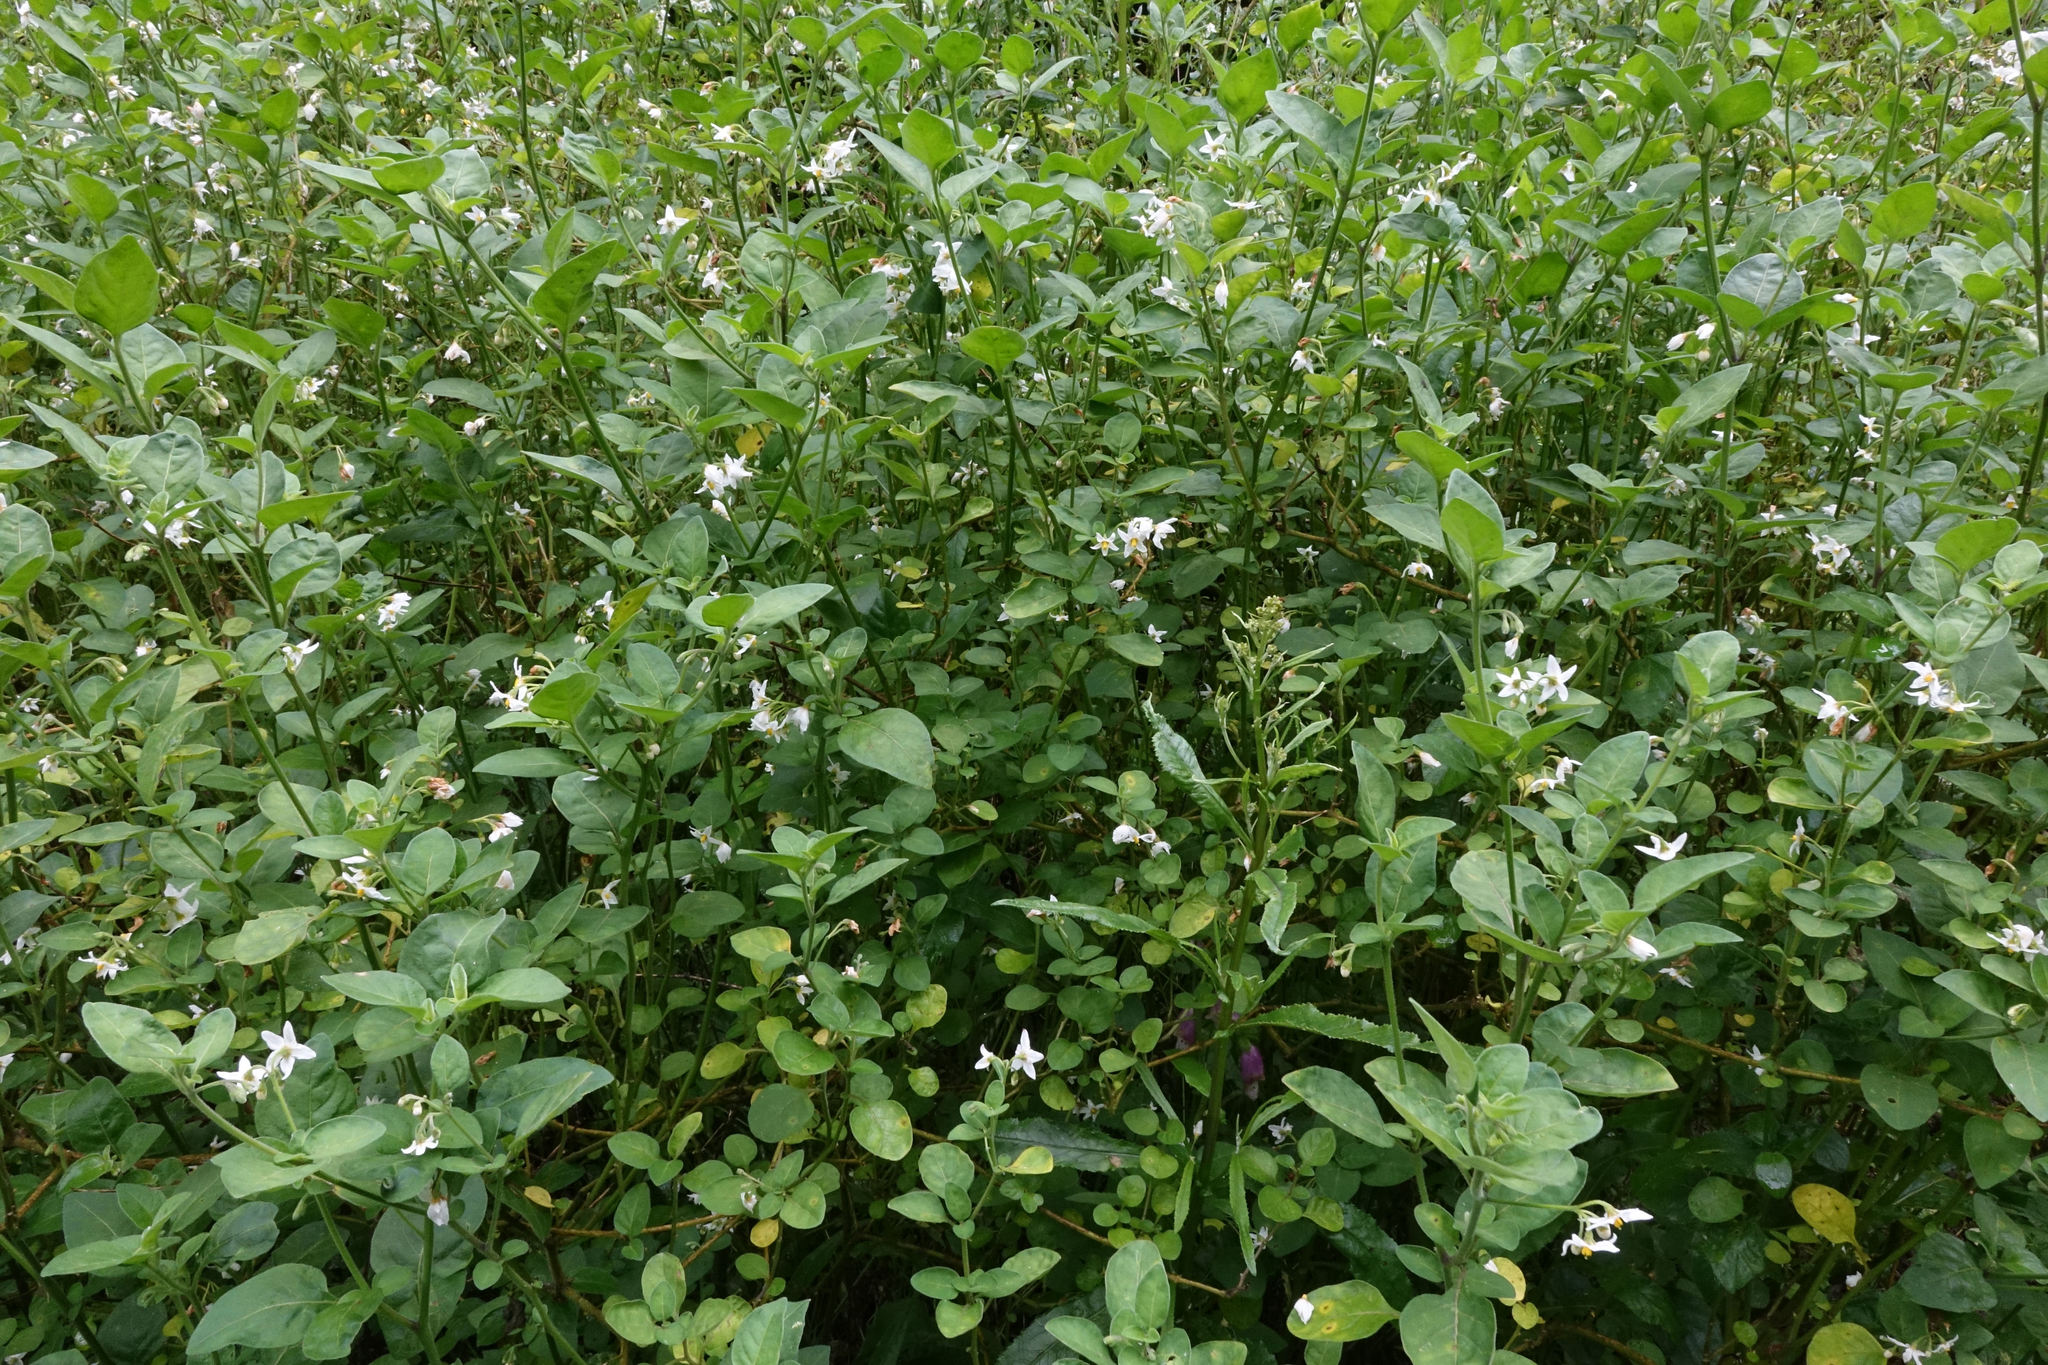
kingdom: Plantae
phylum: Tracheophyta
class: Magnoliopsida
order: Solanales
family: Solanaceae
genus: Solanum
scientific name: Solanum chenopodioides
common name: Tall nightshade
